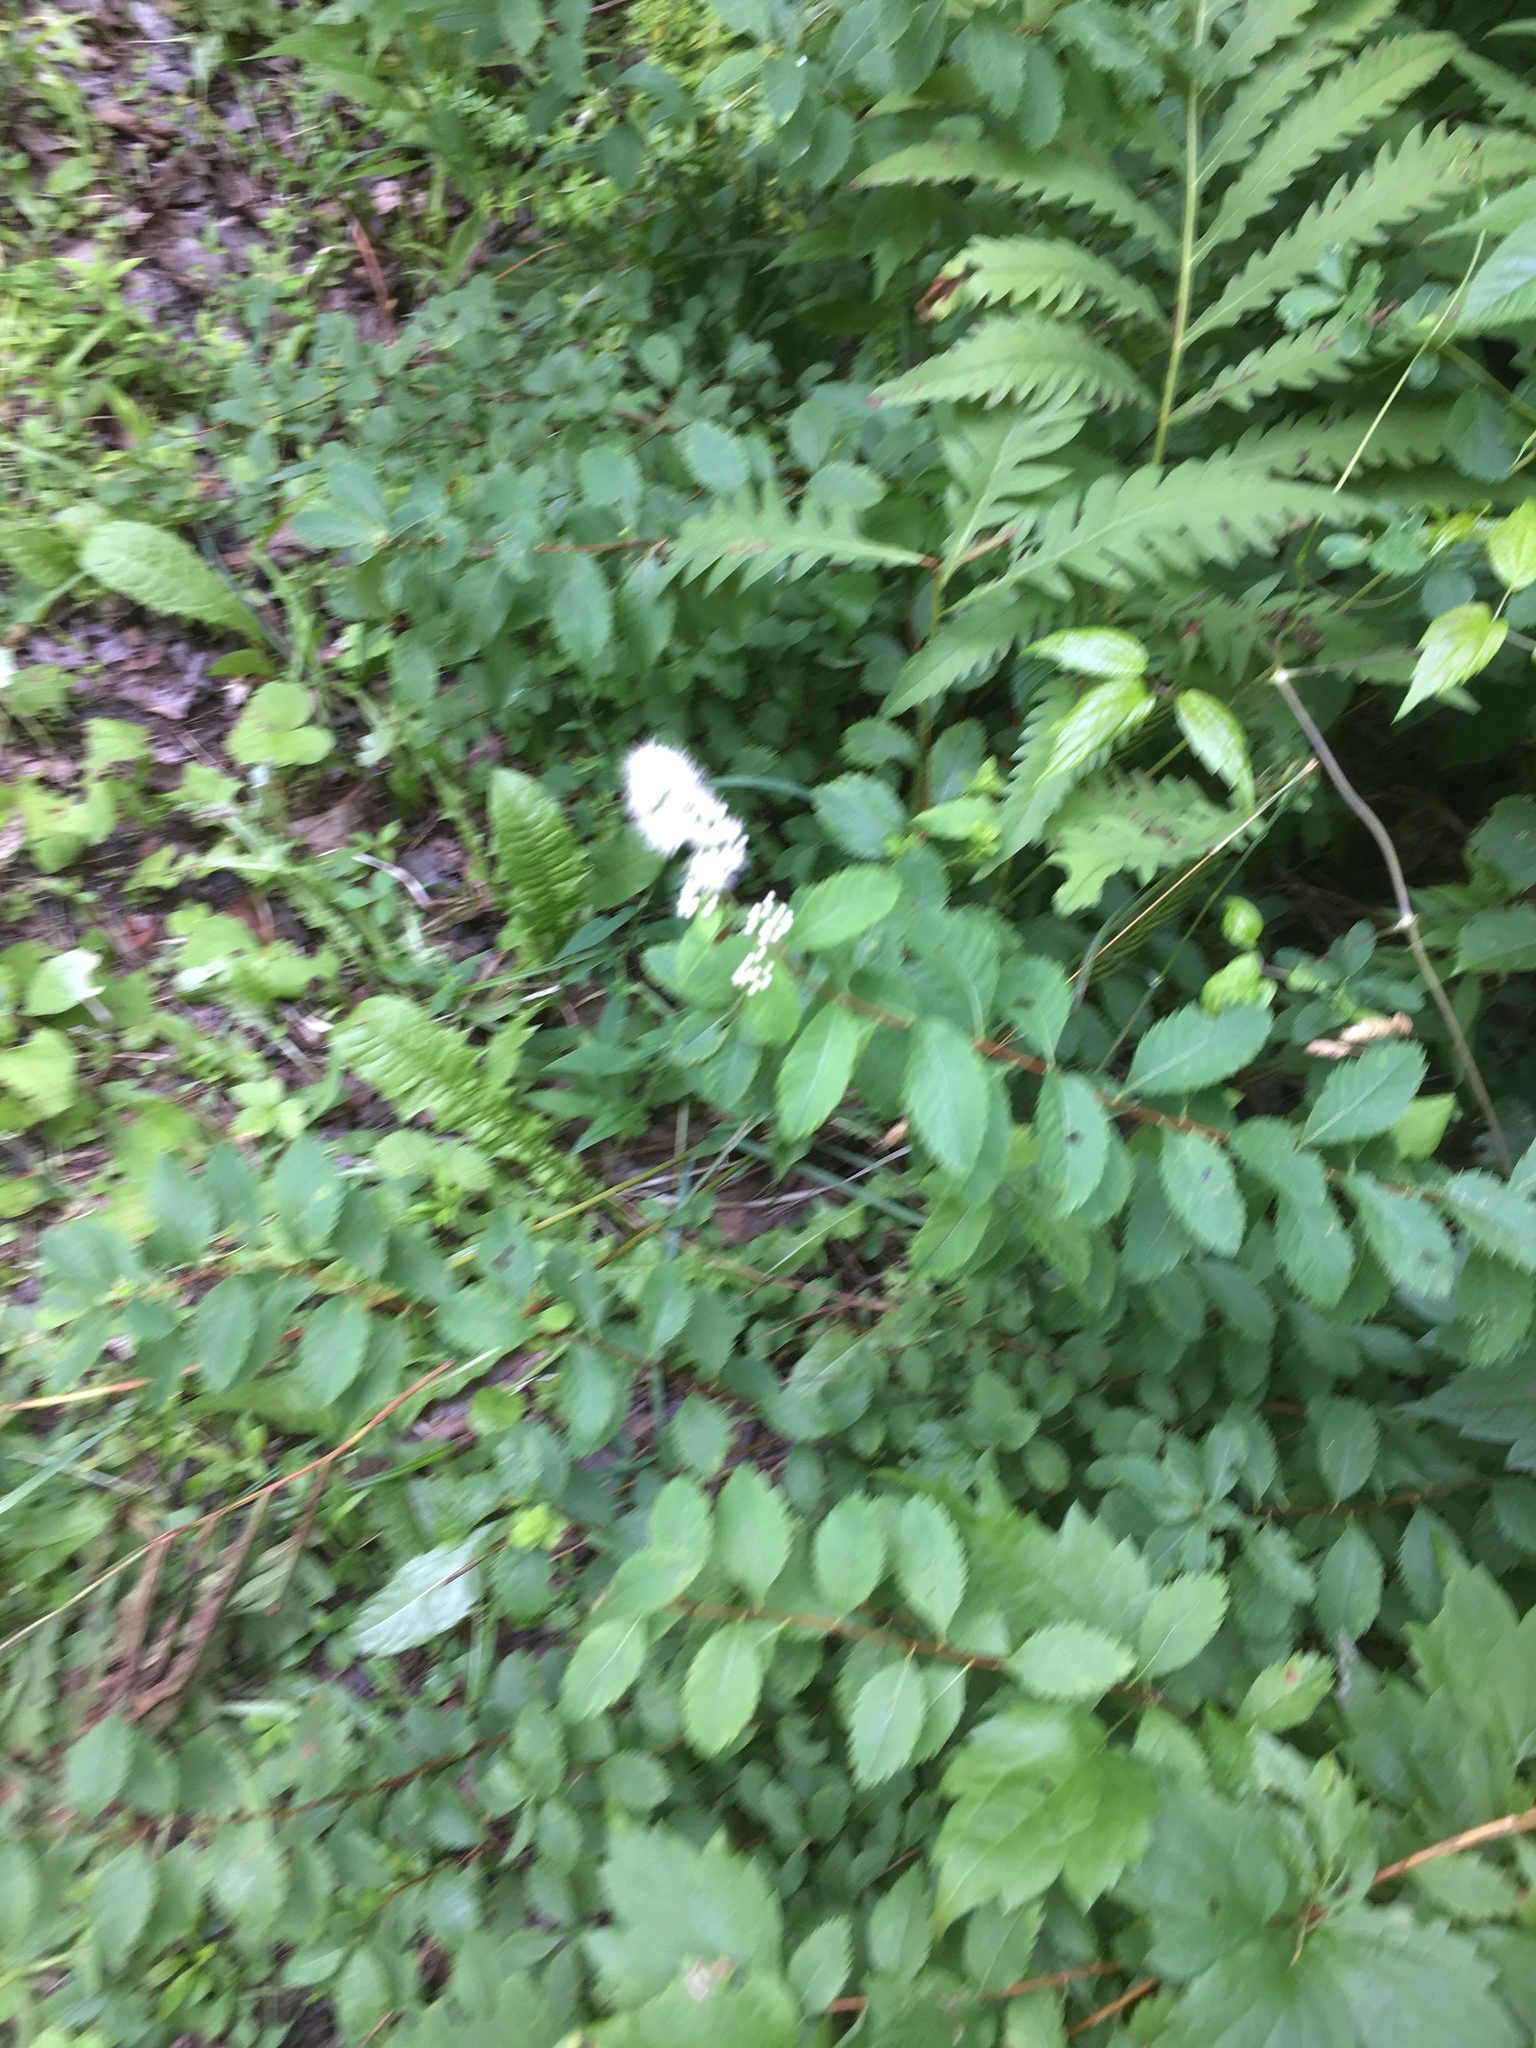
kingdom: Plantae
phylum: Tracheophyta
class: Magnoliopsida
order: Rosales
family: Rosaceae
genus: Spiraea
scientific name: Spiraea alba
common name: Pale bridewort
